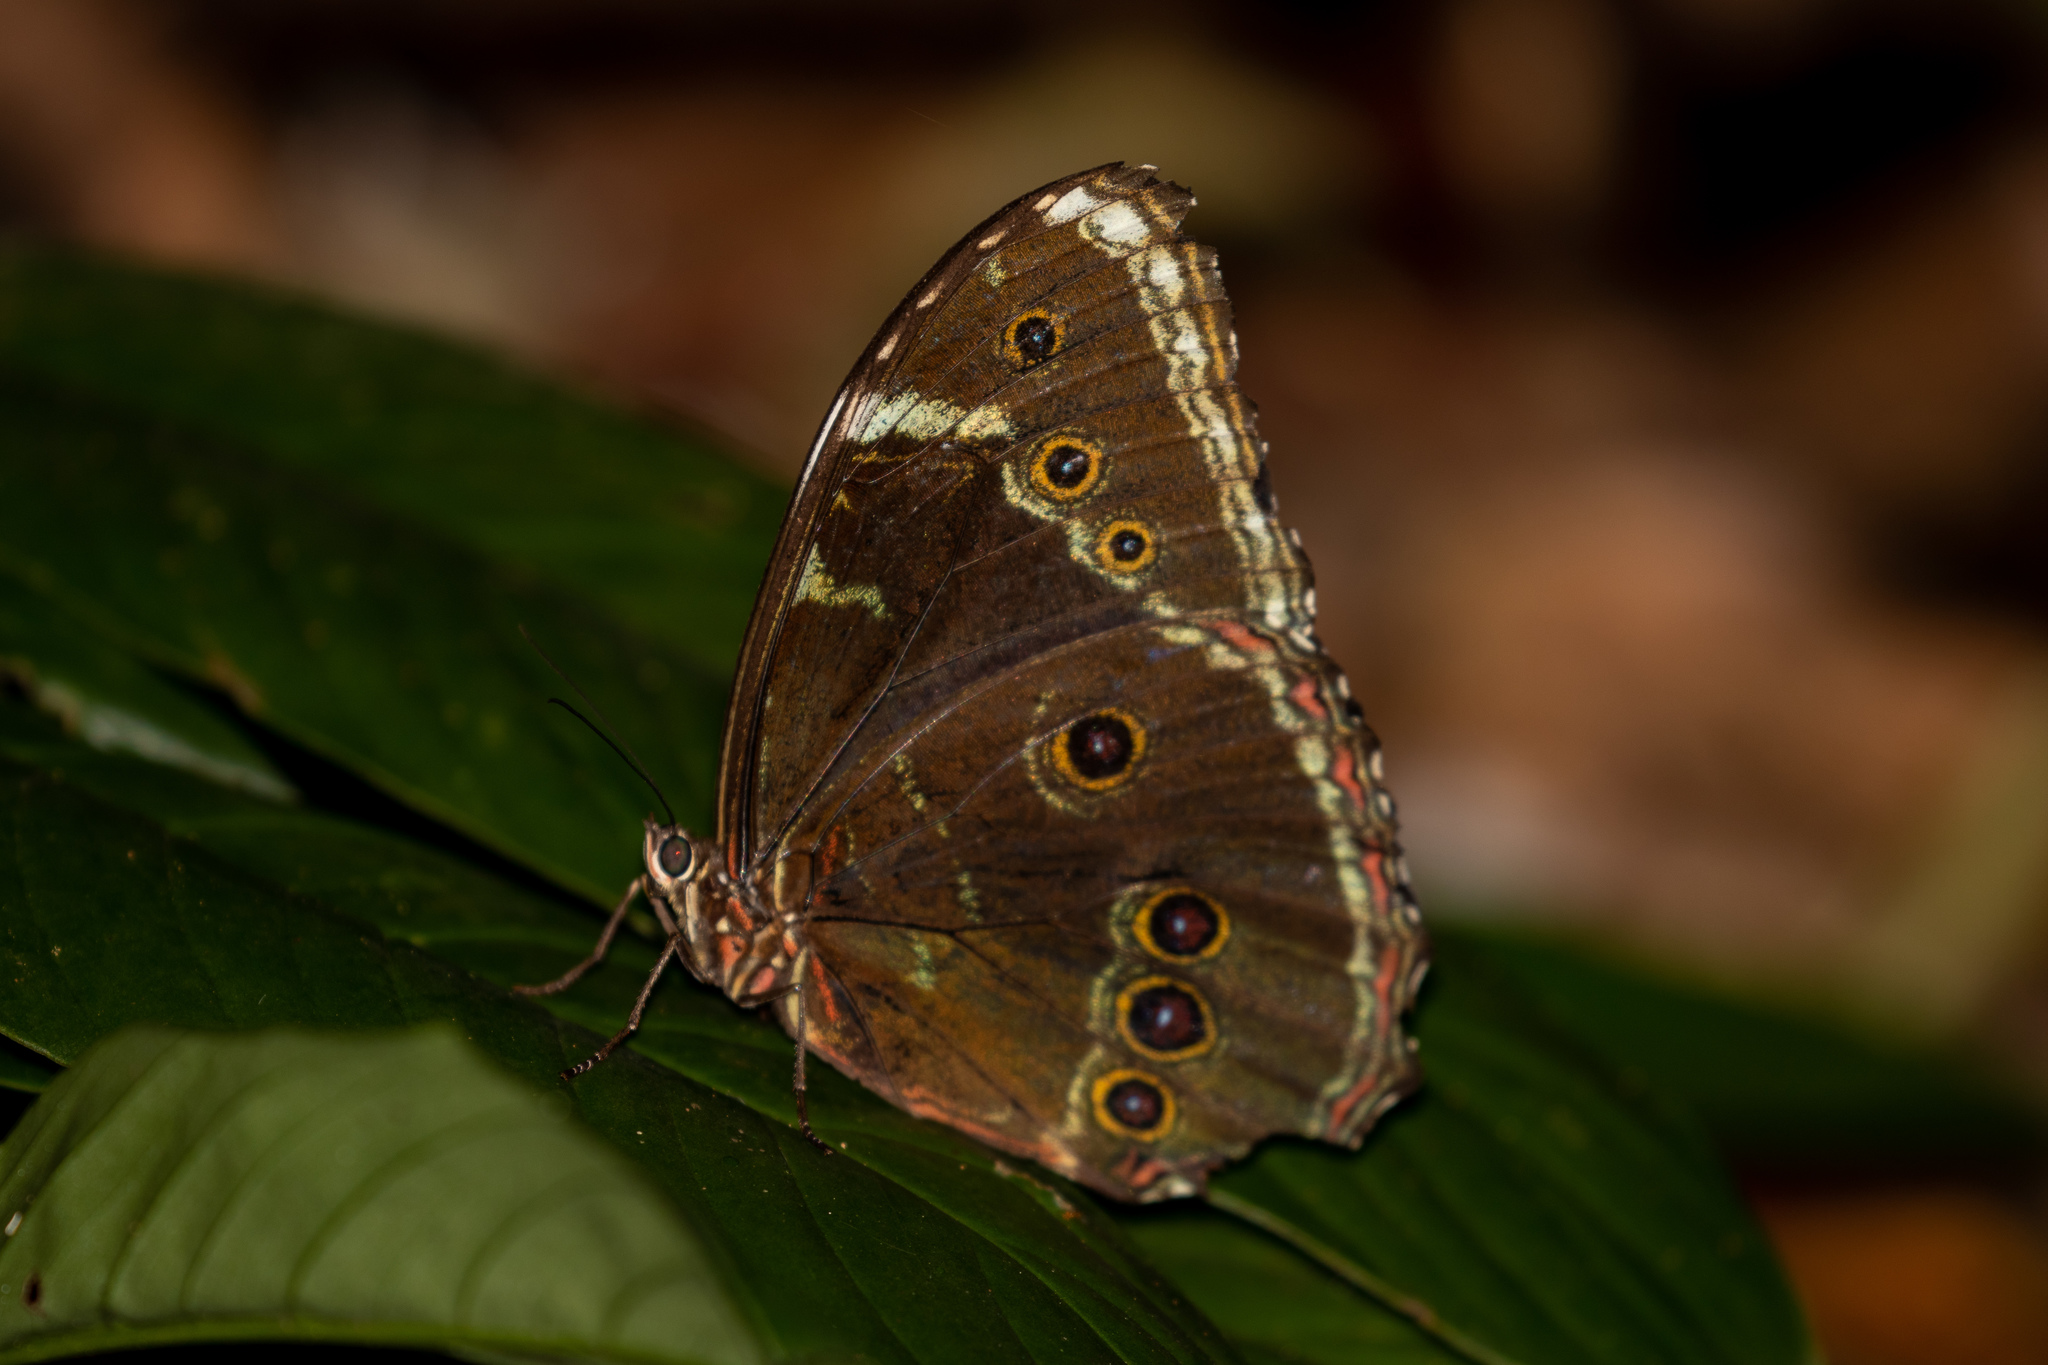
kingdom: Animalia
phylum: Arthropoda
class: Insecta
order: Lepidoptera
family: Nymphalidae
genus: Morpho
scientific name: Morpho helenor
